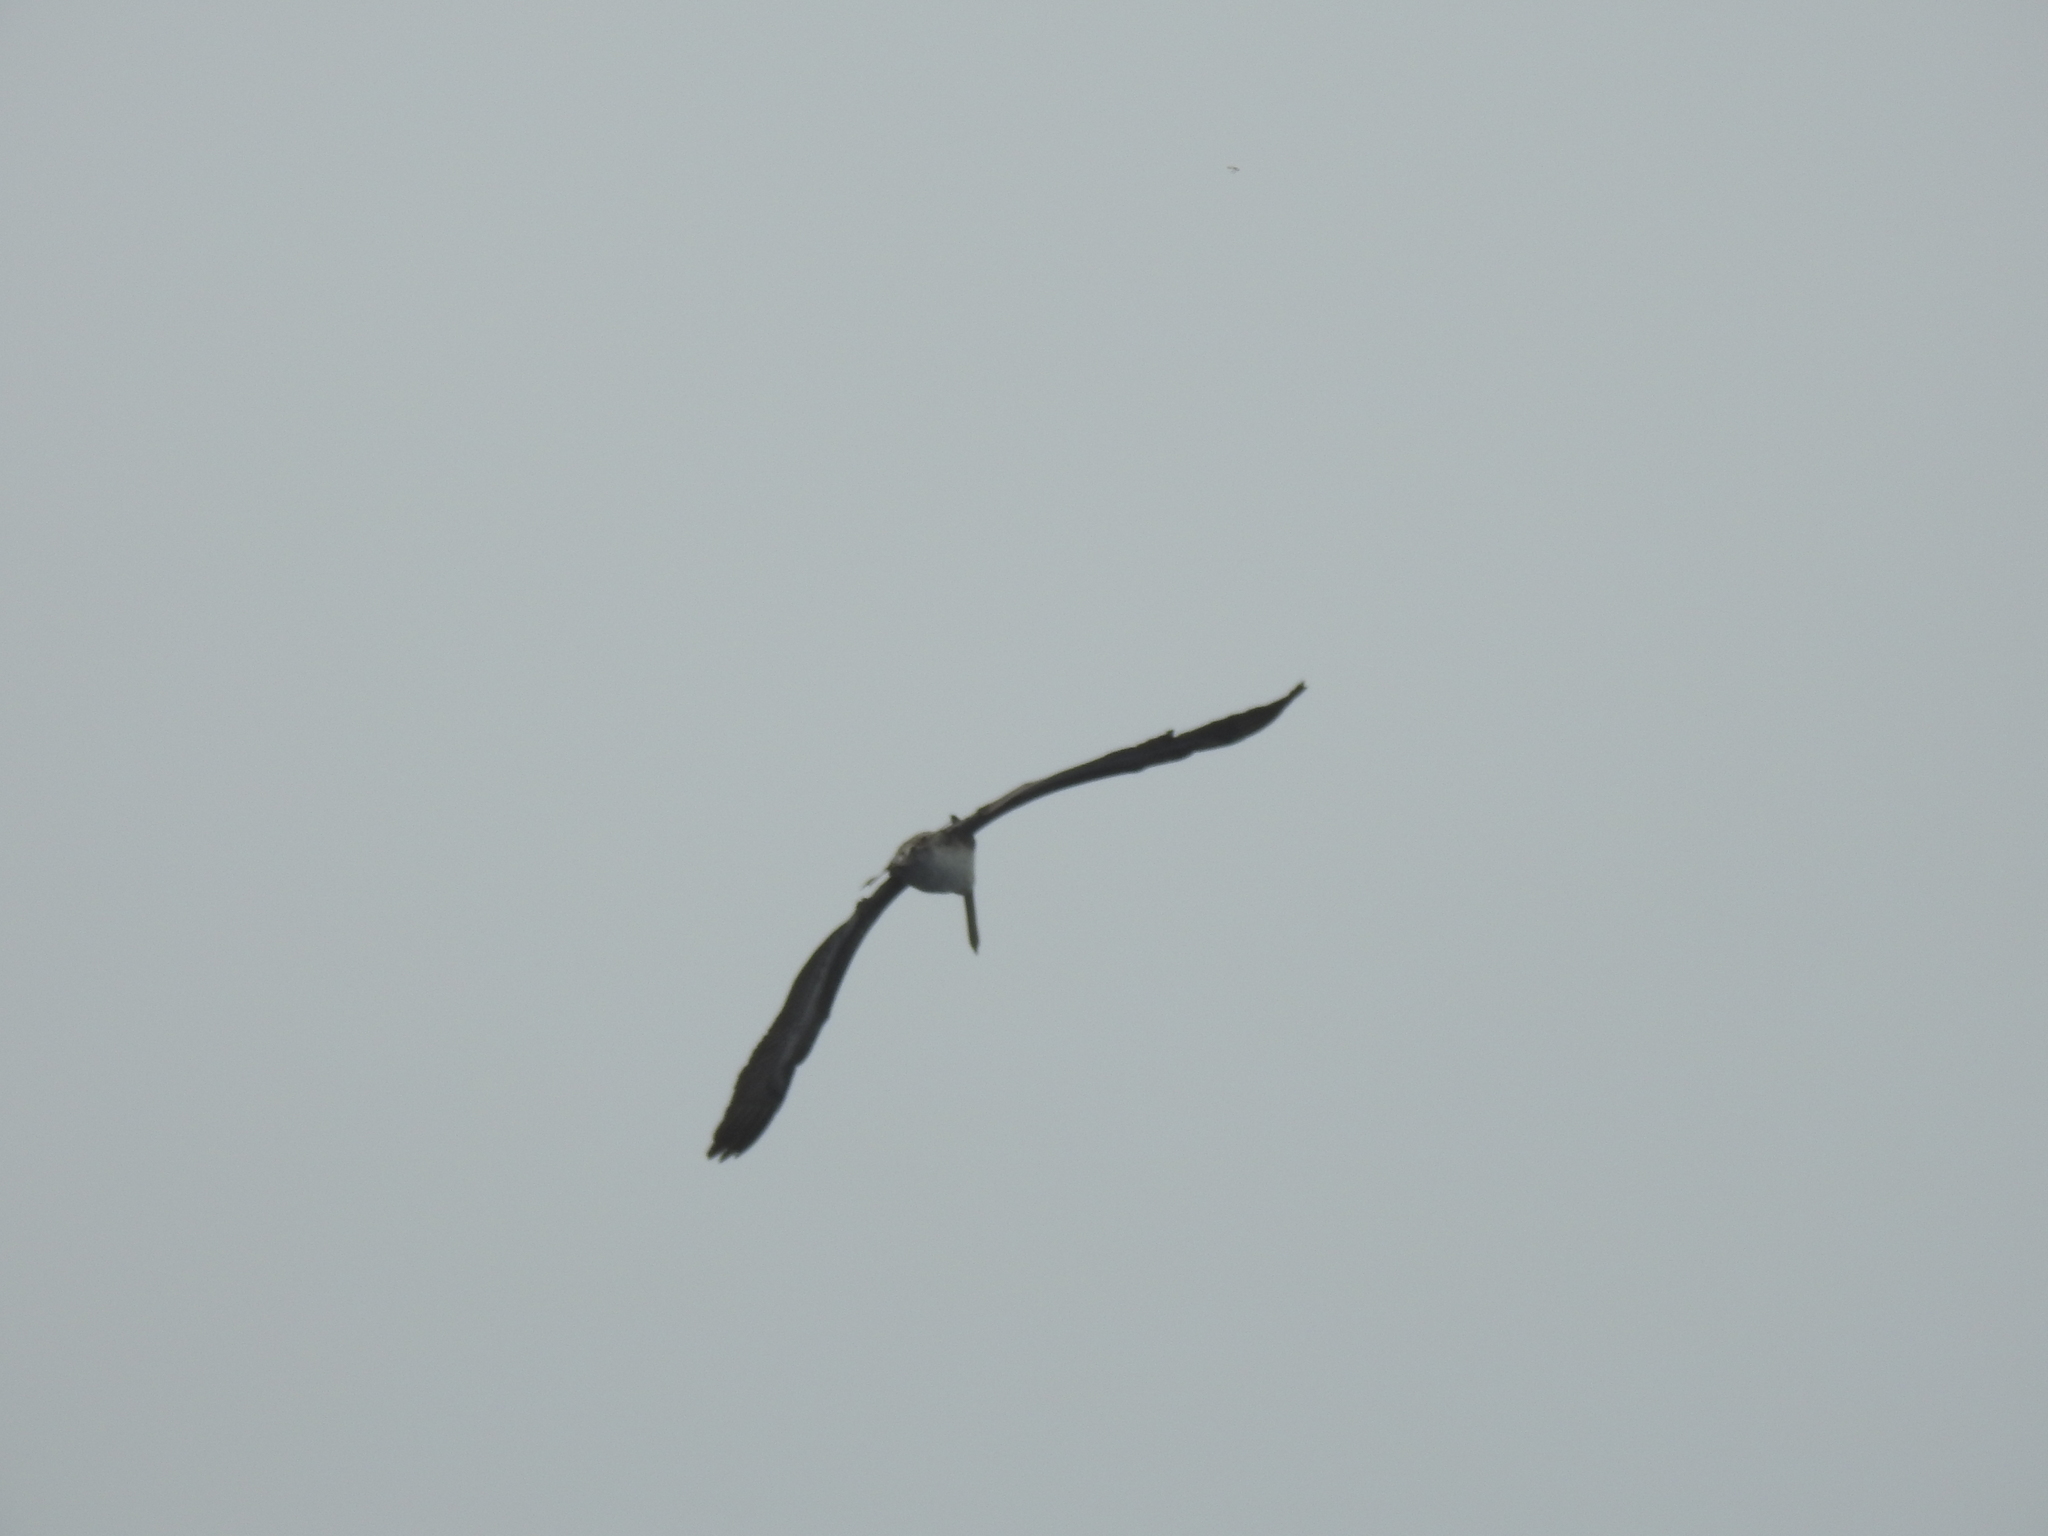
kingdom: Animalia
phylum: Chordata
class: Aves
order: Pelecaniformes
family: Pelecanidae
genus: Pelecanus
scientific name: Pelecanus occidentalis
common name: Brown pelican
